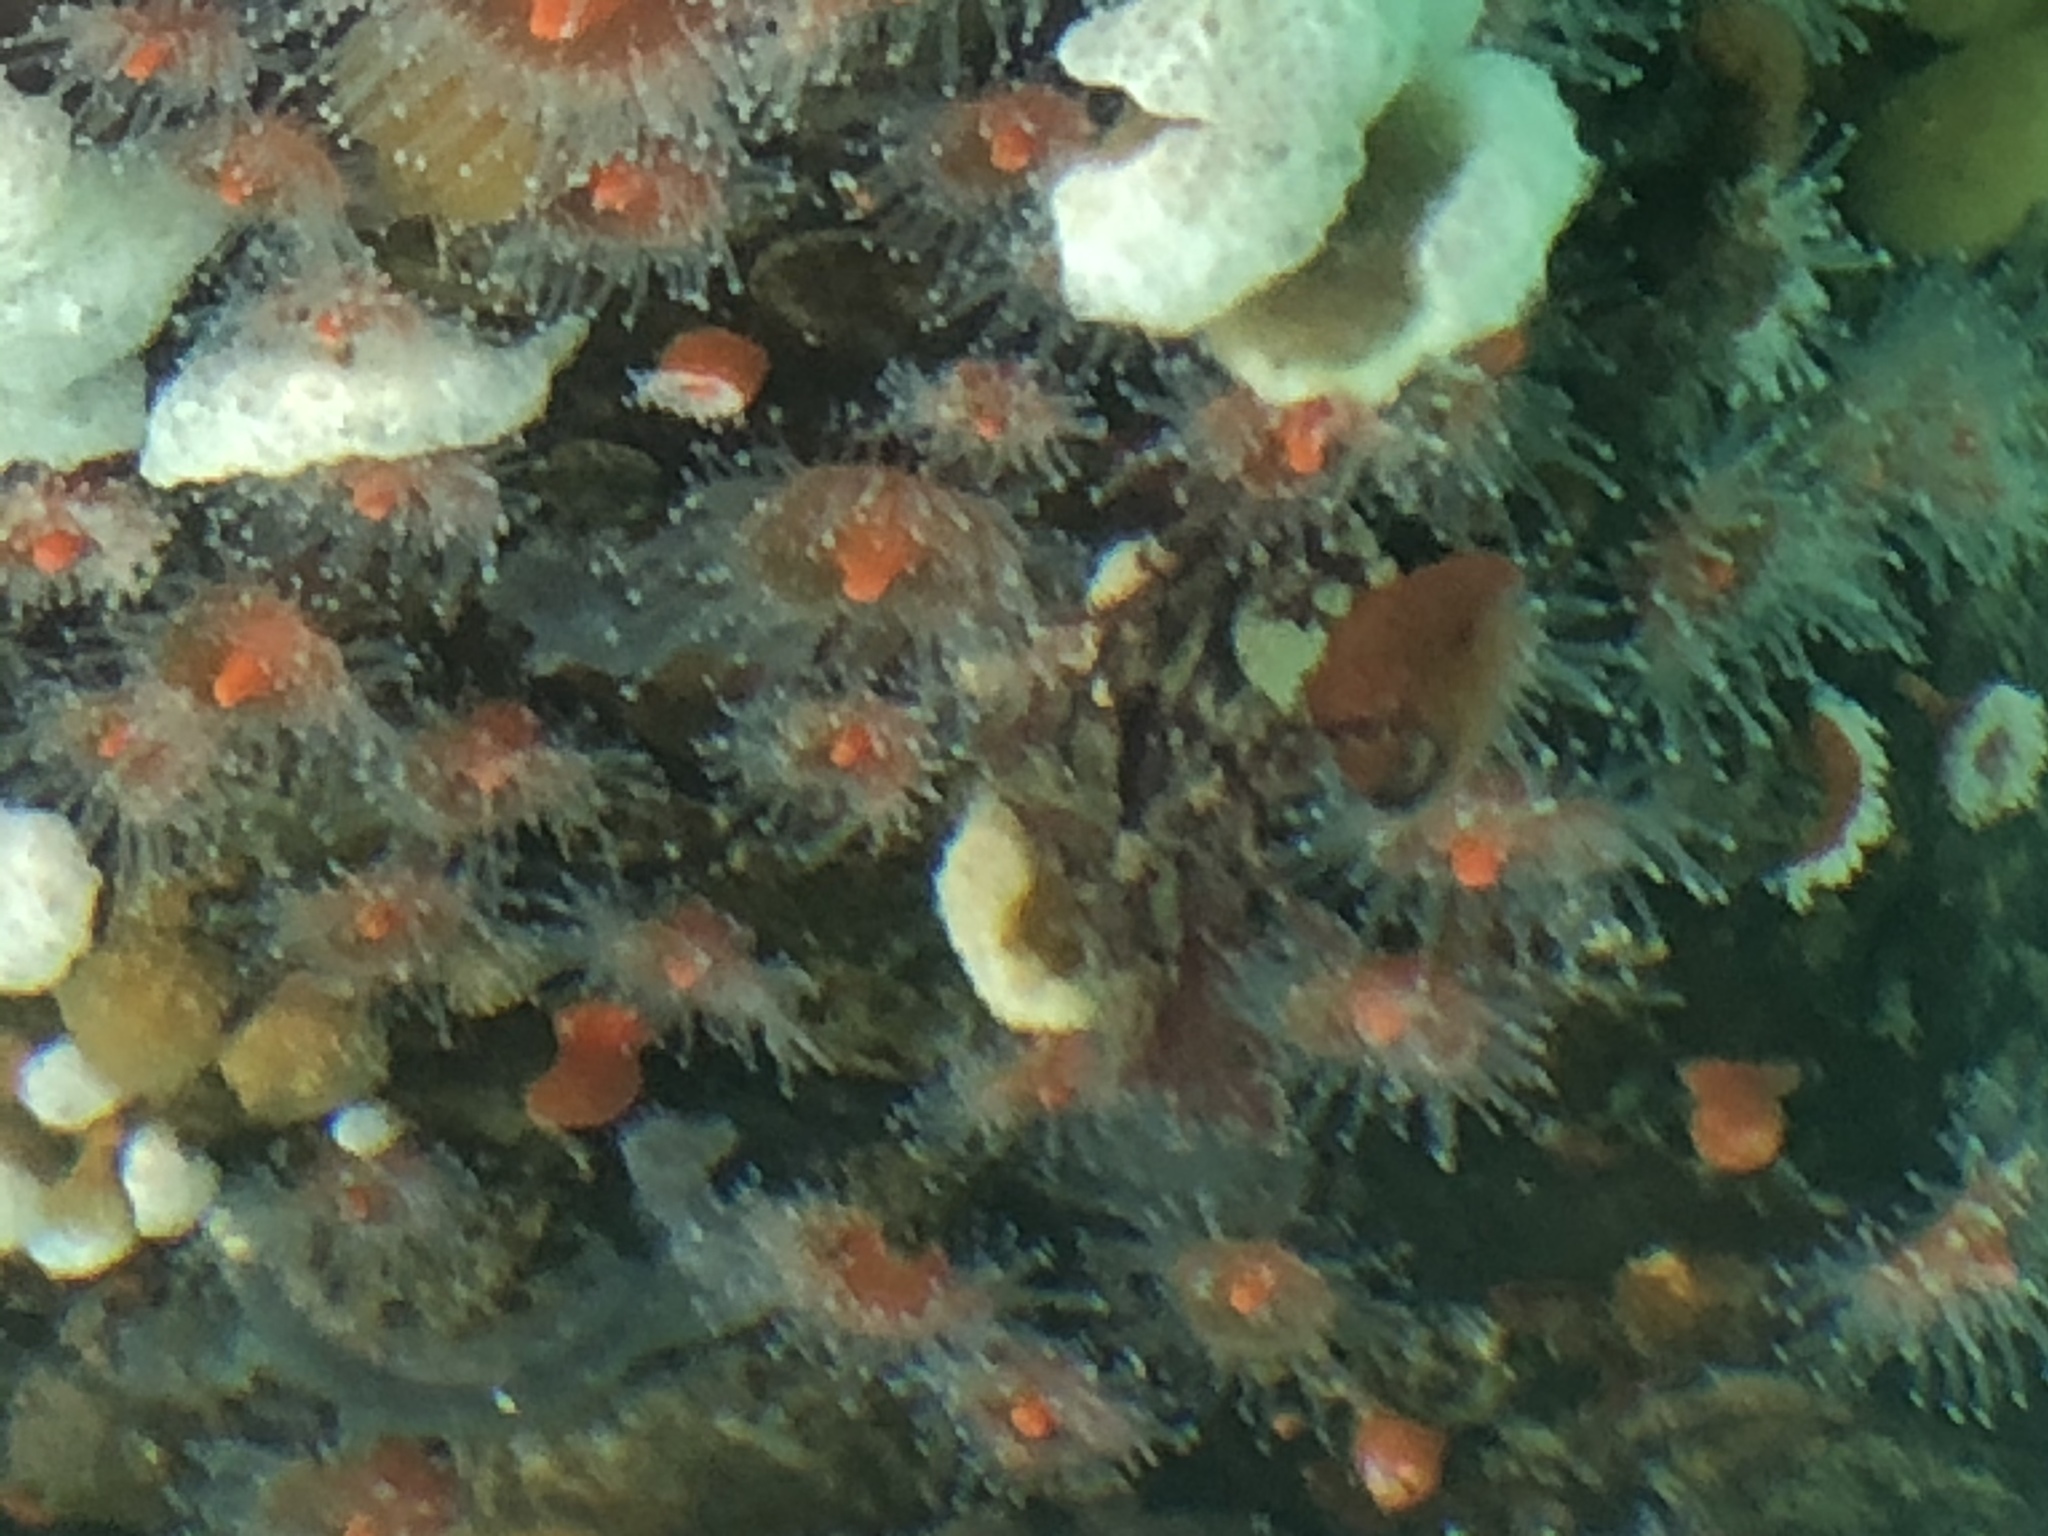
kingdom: Animalia
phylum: Cnidaria
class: Anthozoa
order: Corallimorpharia
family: Corallimorphidae
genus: Corynactis
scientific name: Corynactis californica
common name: Strawberry corallimorpharian
